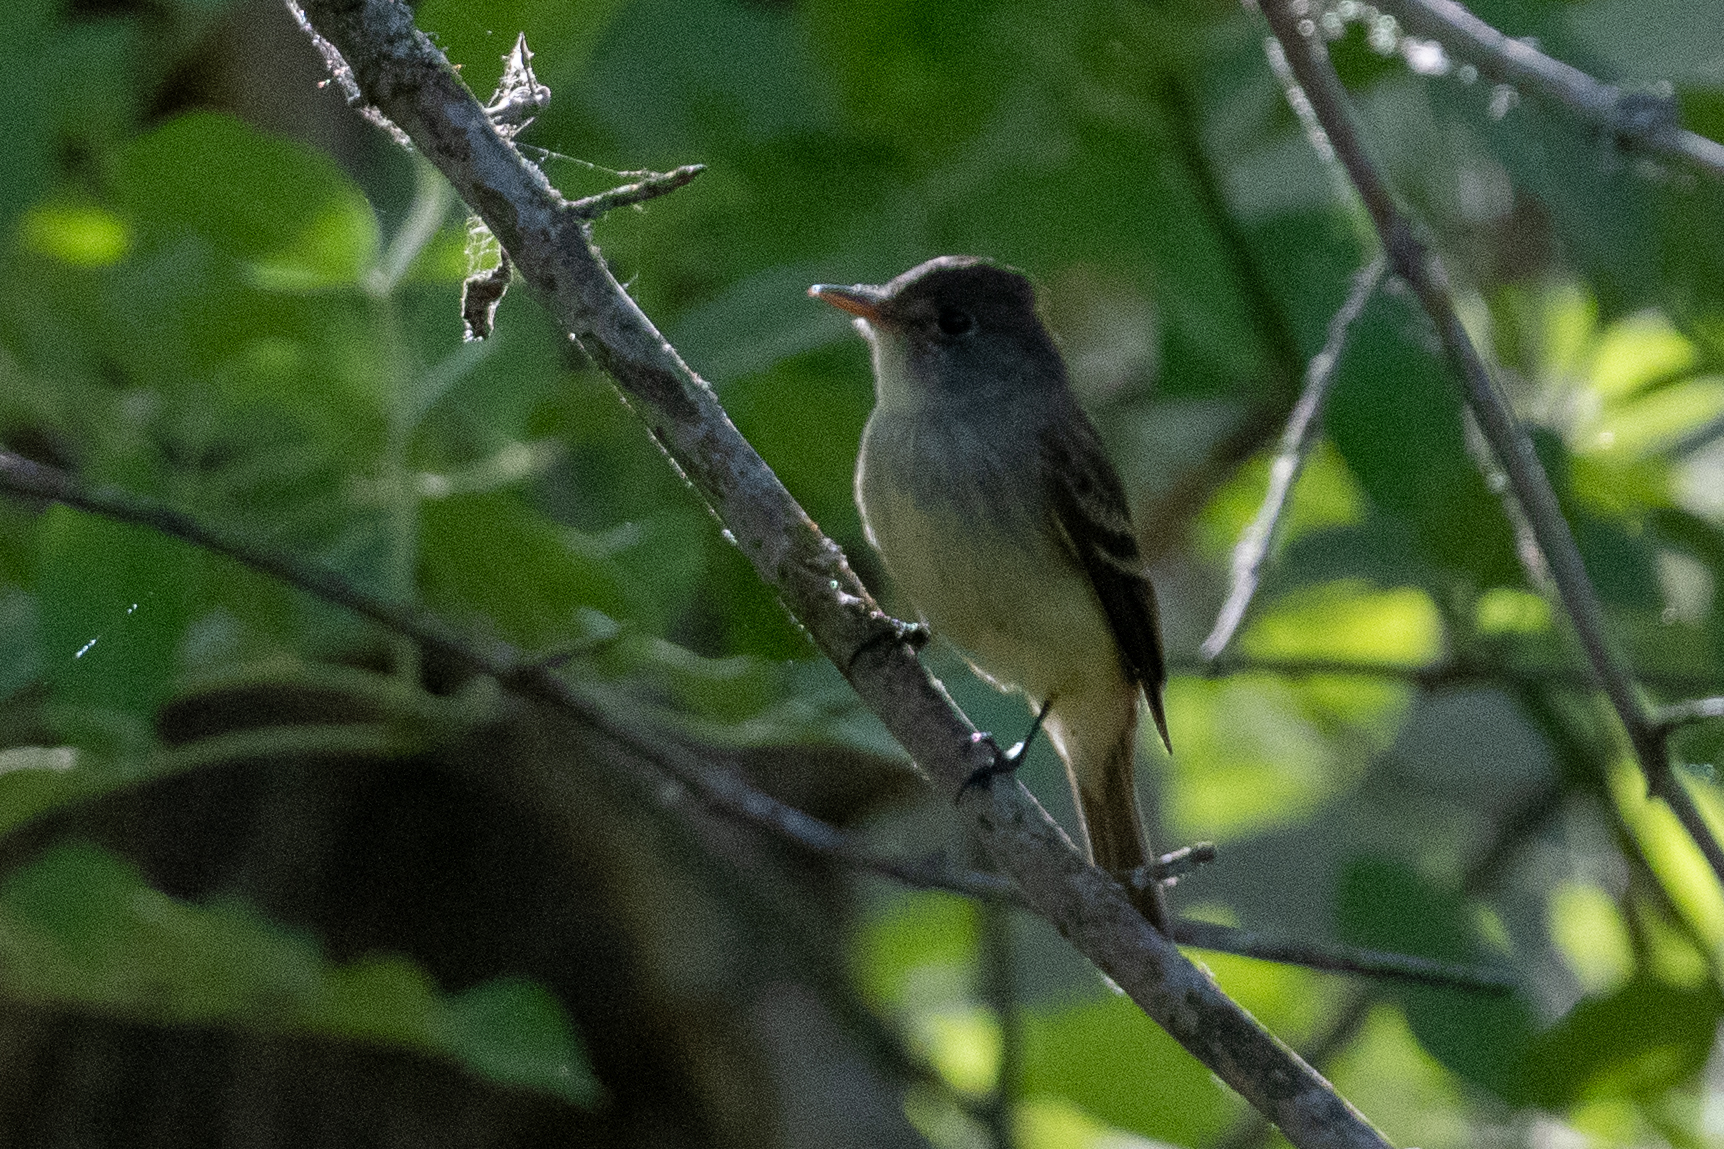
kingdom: Animalia
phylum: Chordata
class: Aves
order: Passeriformes
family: Tyrannidae
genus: Empidonax
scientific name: Empidonax traillii
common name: Willow flycatcher
